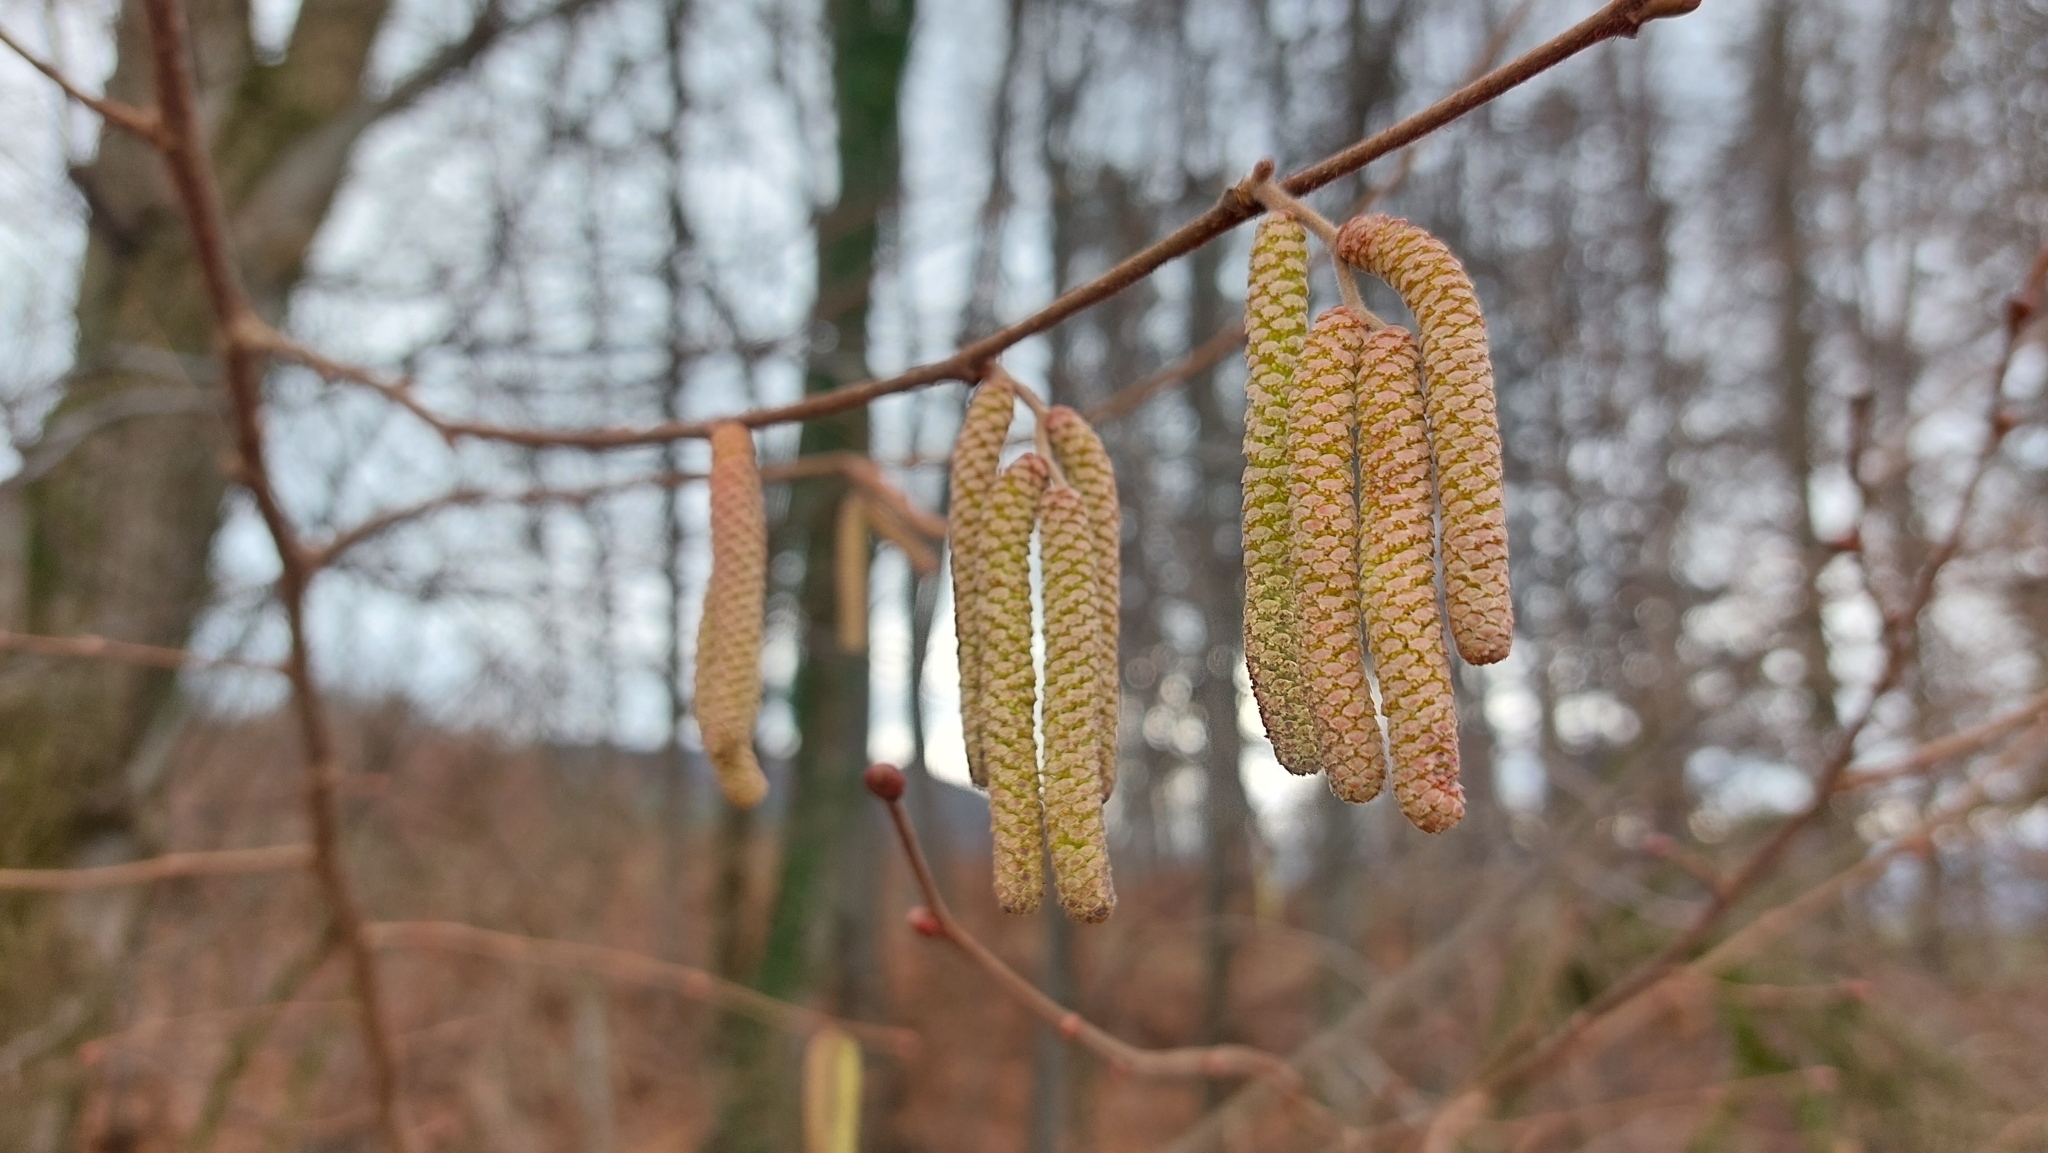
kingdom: Plantae
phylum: Tracheophyta
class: Magnoliopsida
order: Fagales
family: Betulaceae
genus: Corylus
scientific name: Corylus avellana
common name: European hazel
